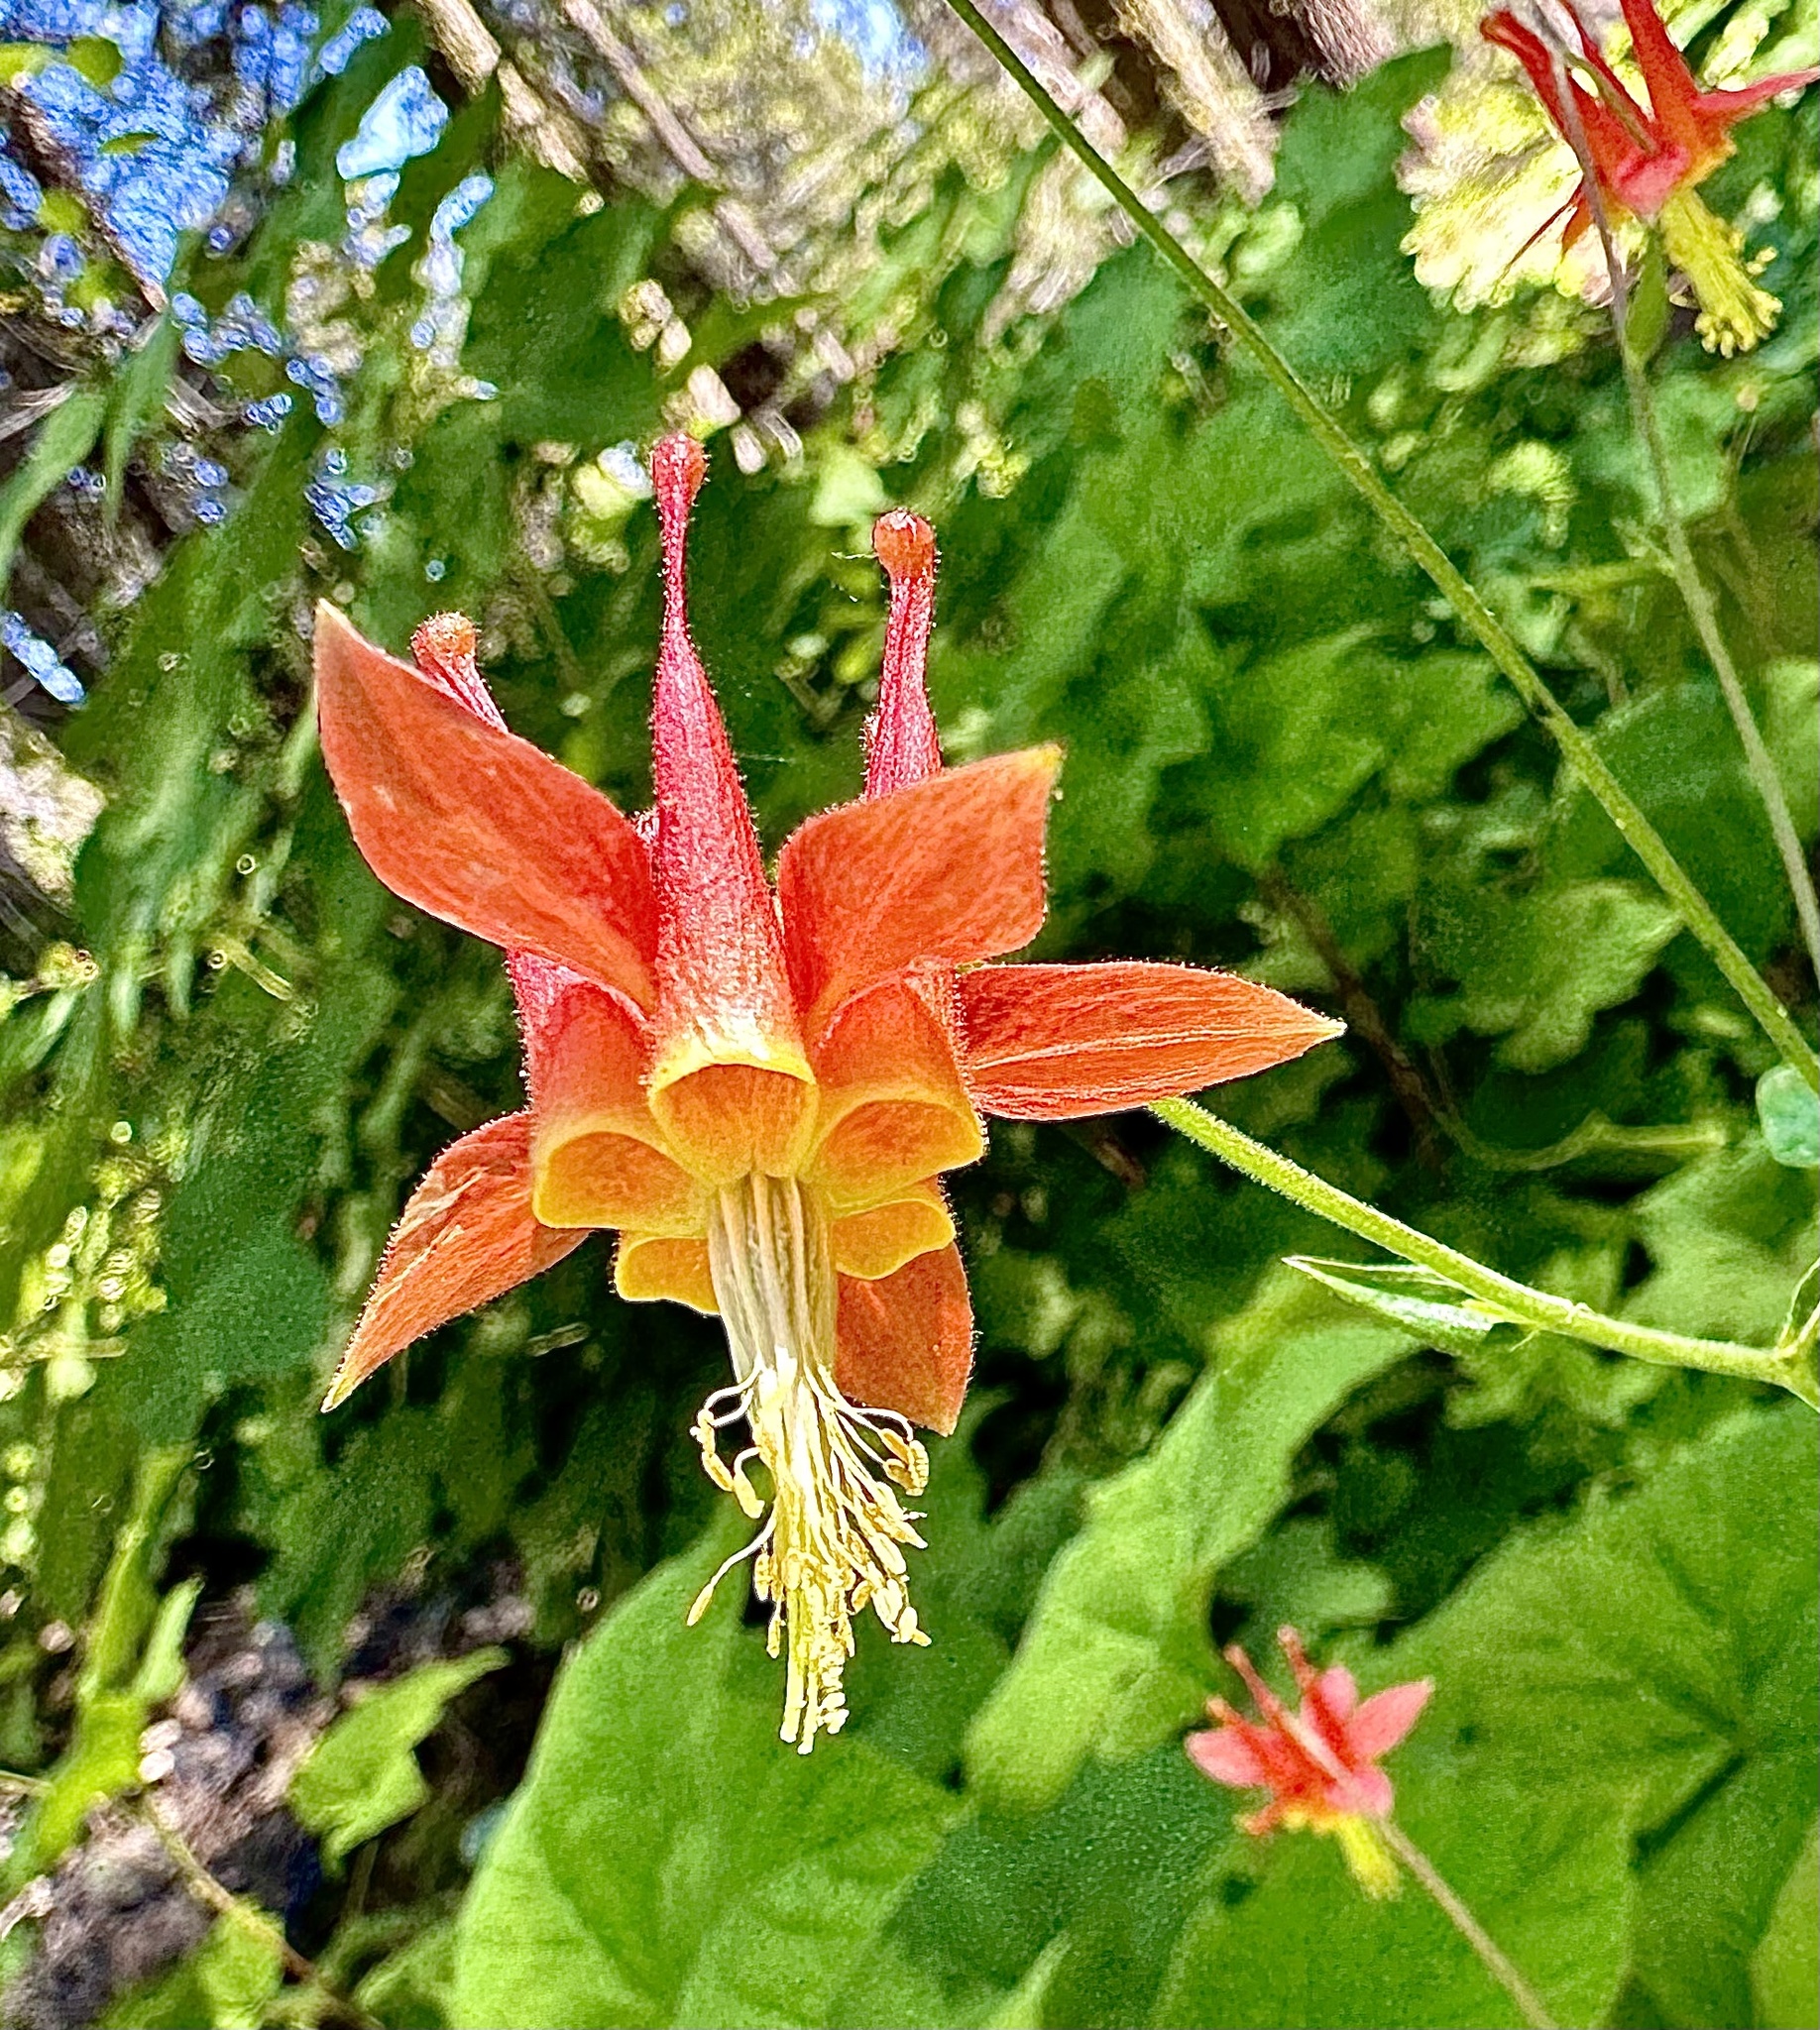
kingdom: Plantae
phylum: Tracheophyta
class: Magnoliopsida
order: Ranunculales
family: Ranunculaceae
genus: Aquilegia
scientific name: Aquilegia formosa
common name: Sitka columbine
